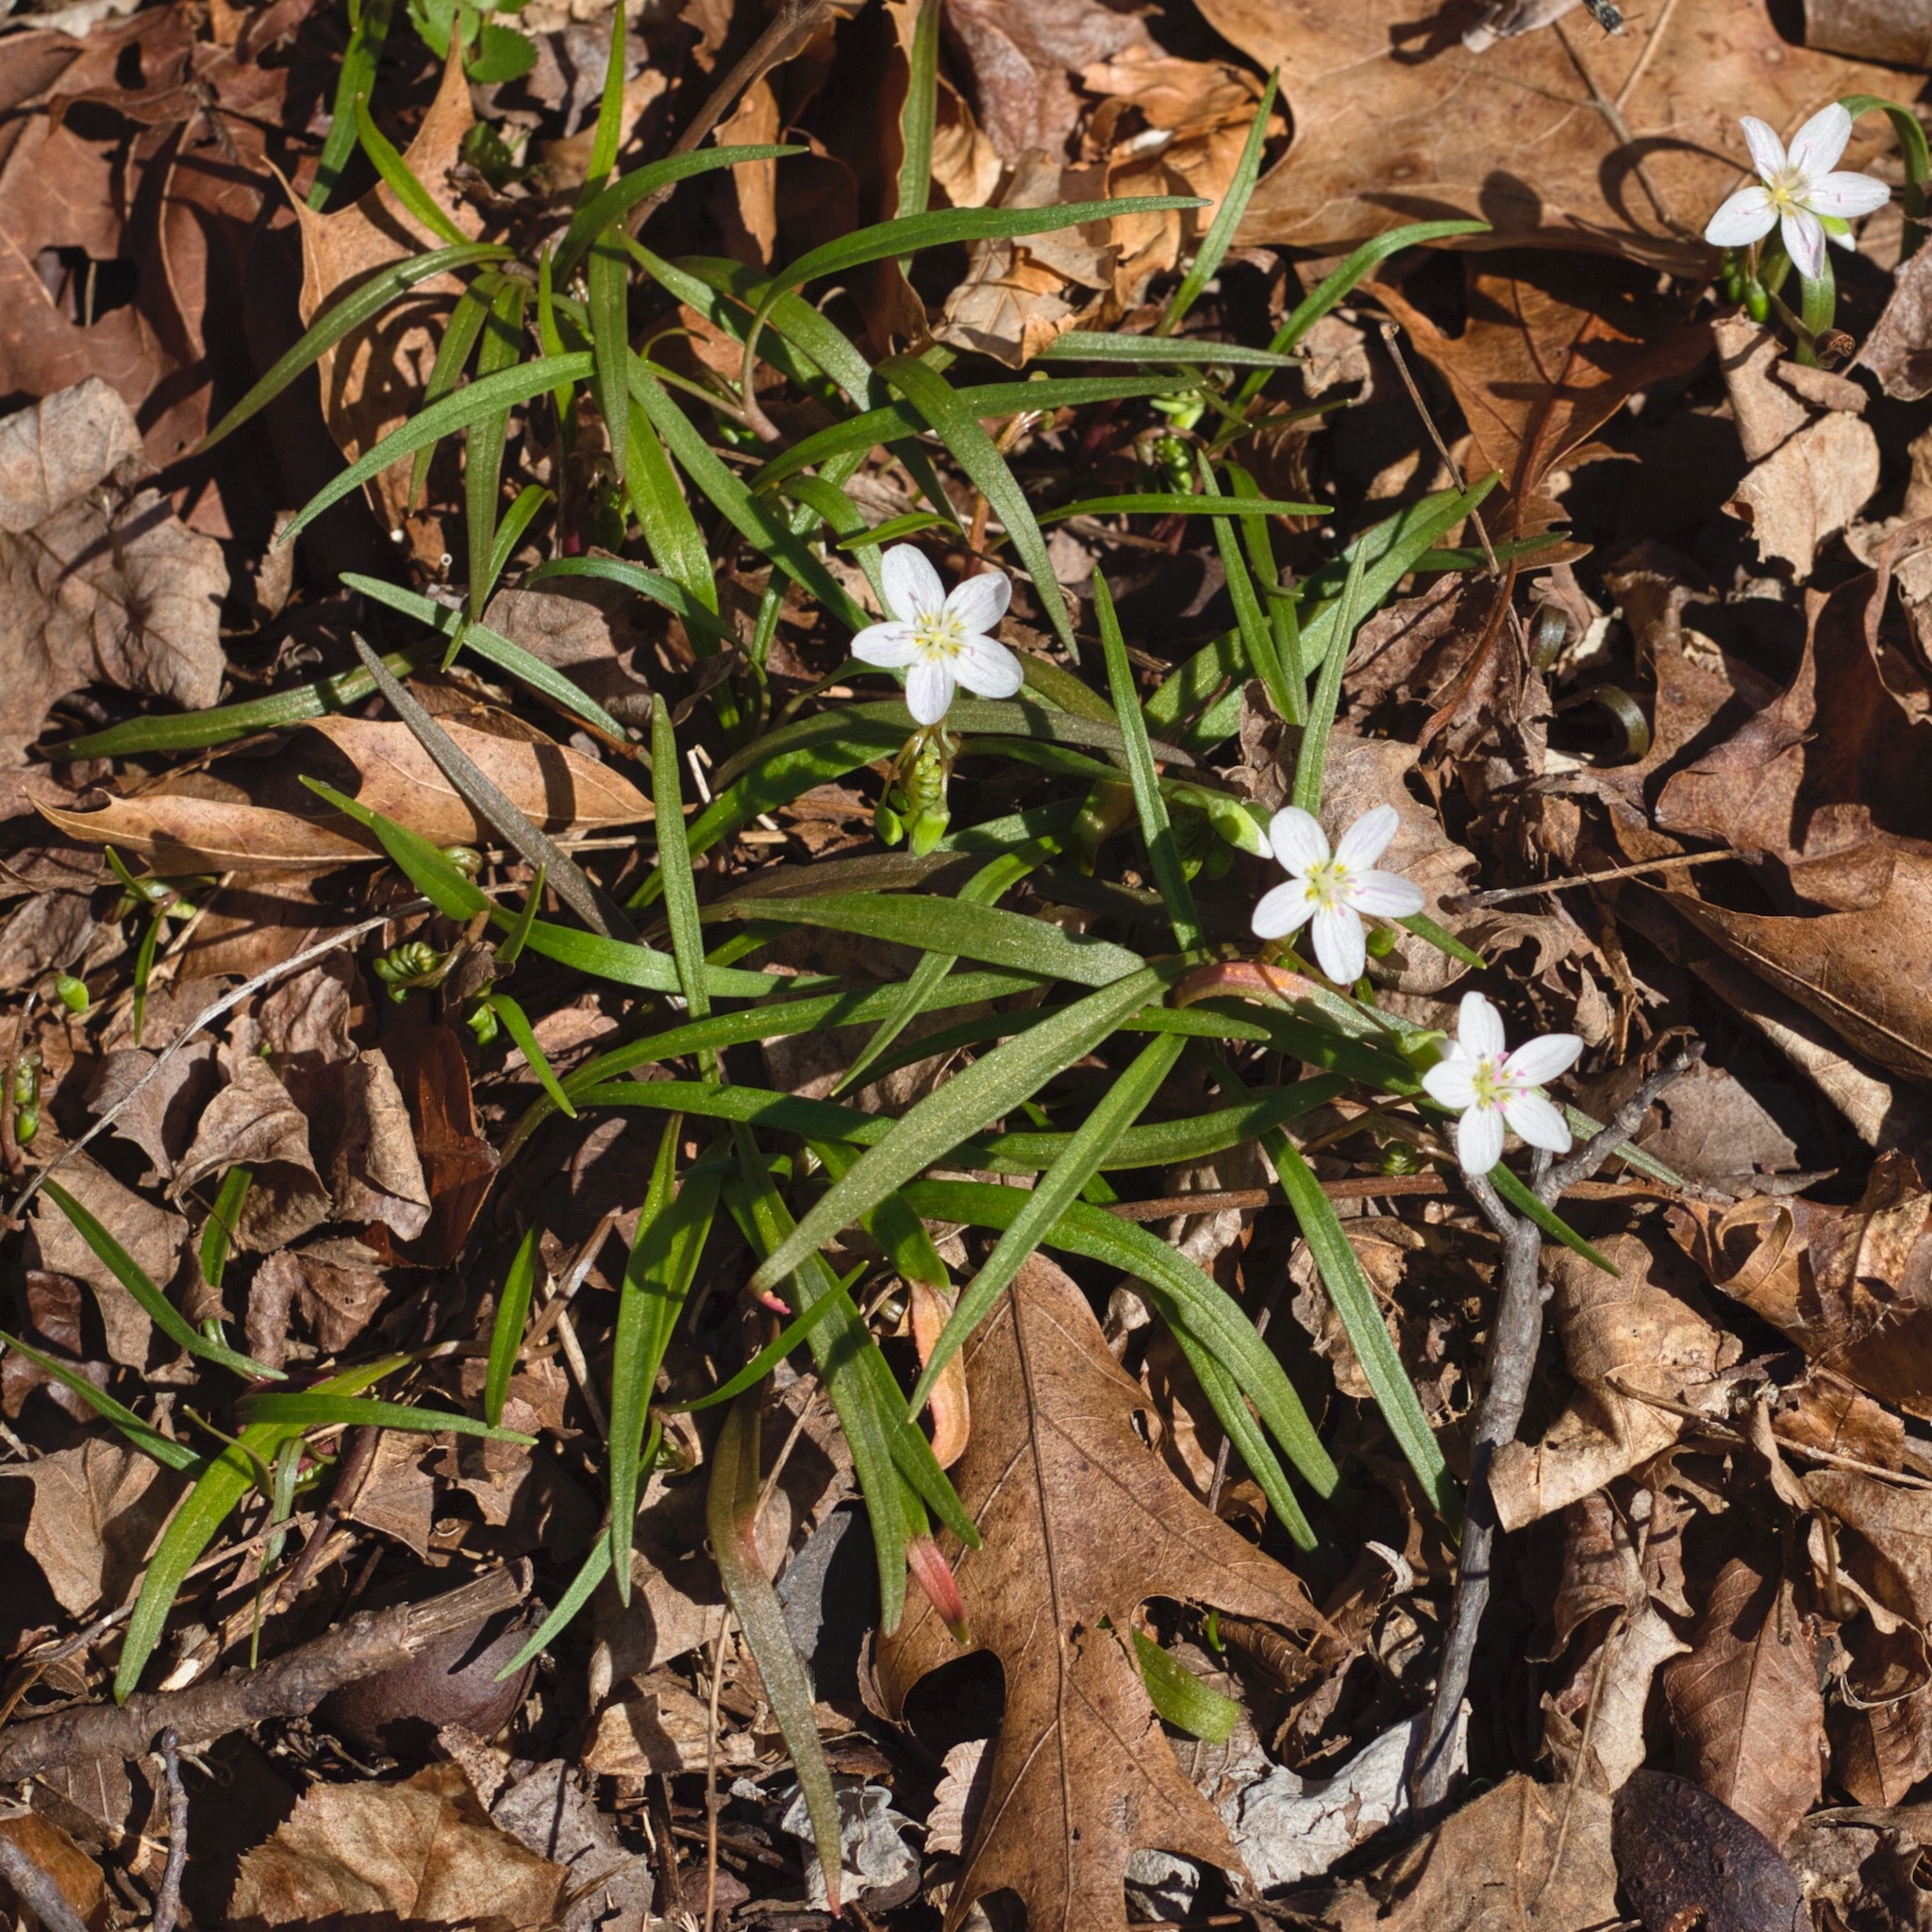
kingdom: Plantae
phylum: Tracheophyta
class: Magnoliopsida
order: Caryophyllales
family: Montiaceae
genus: Claytonia
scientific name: Claytonia virginica
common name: Virginia springbeauty
